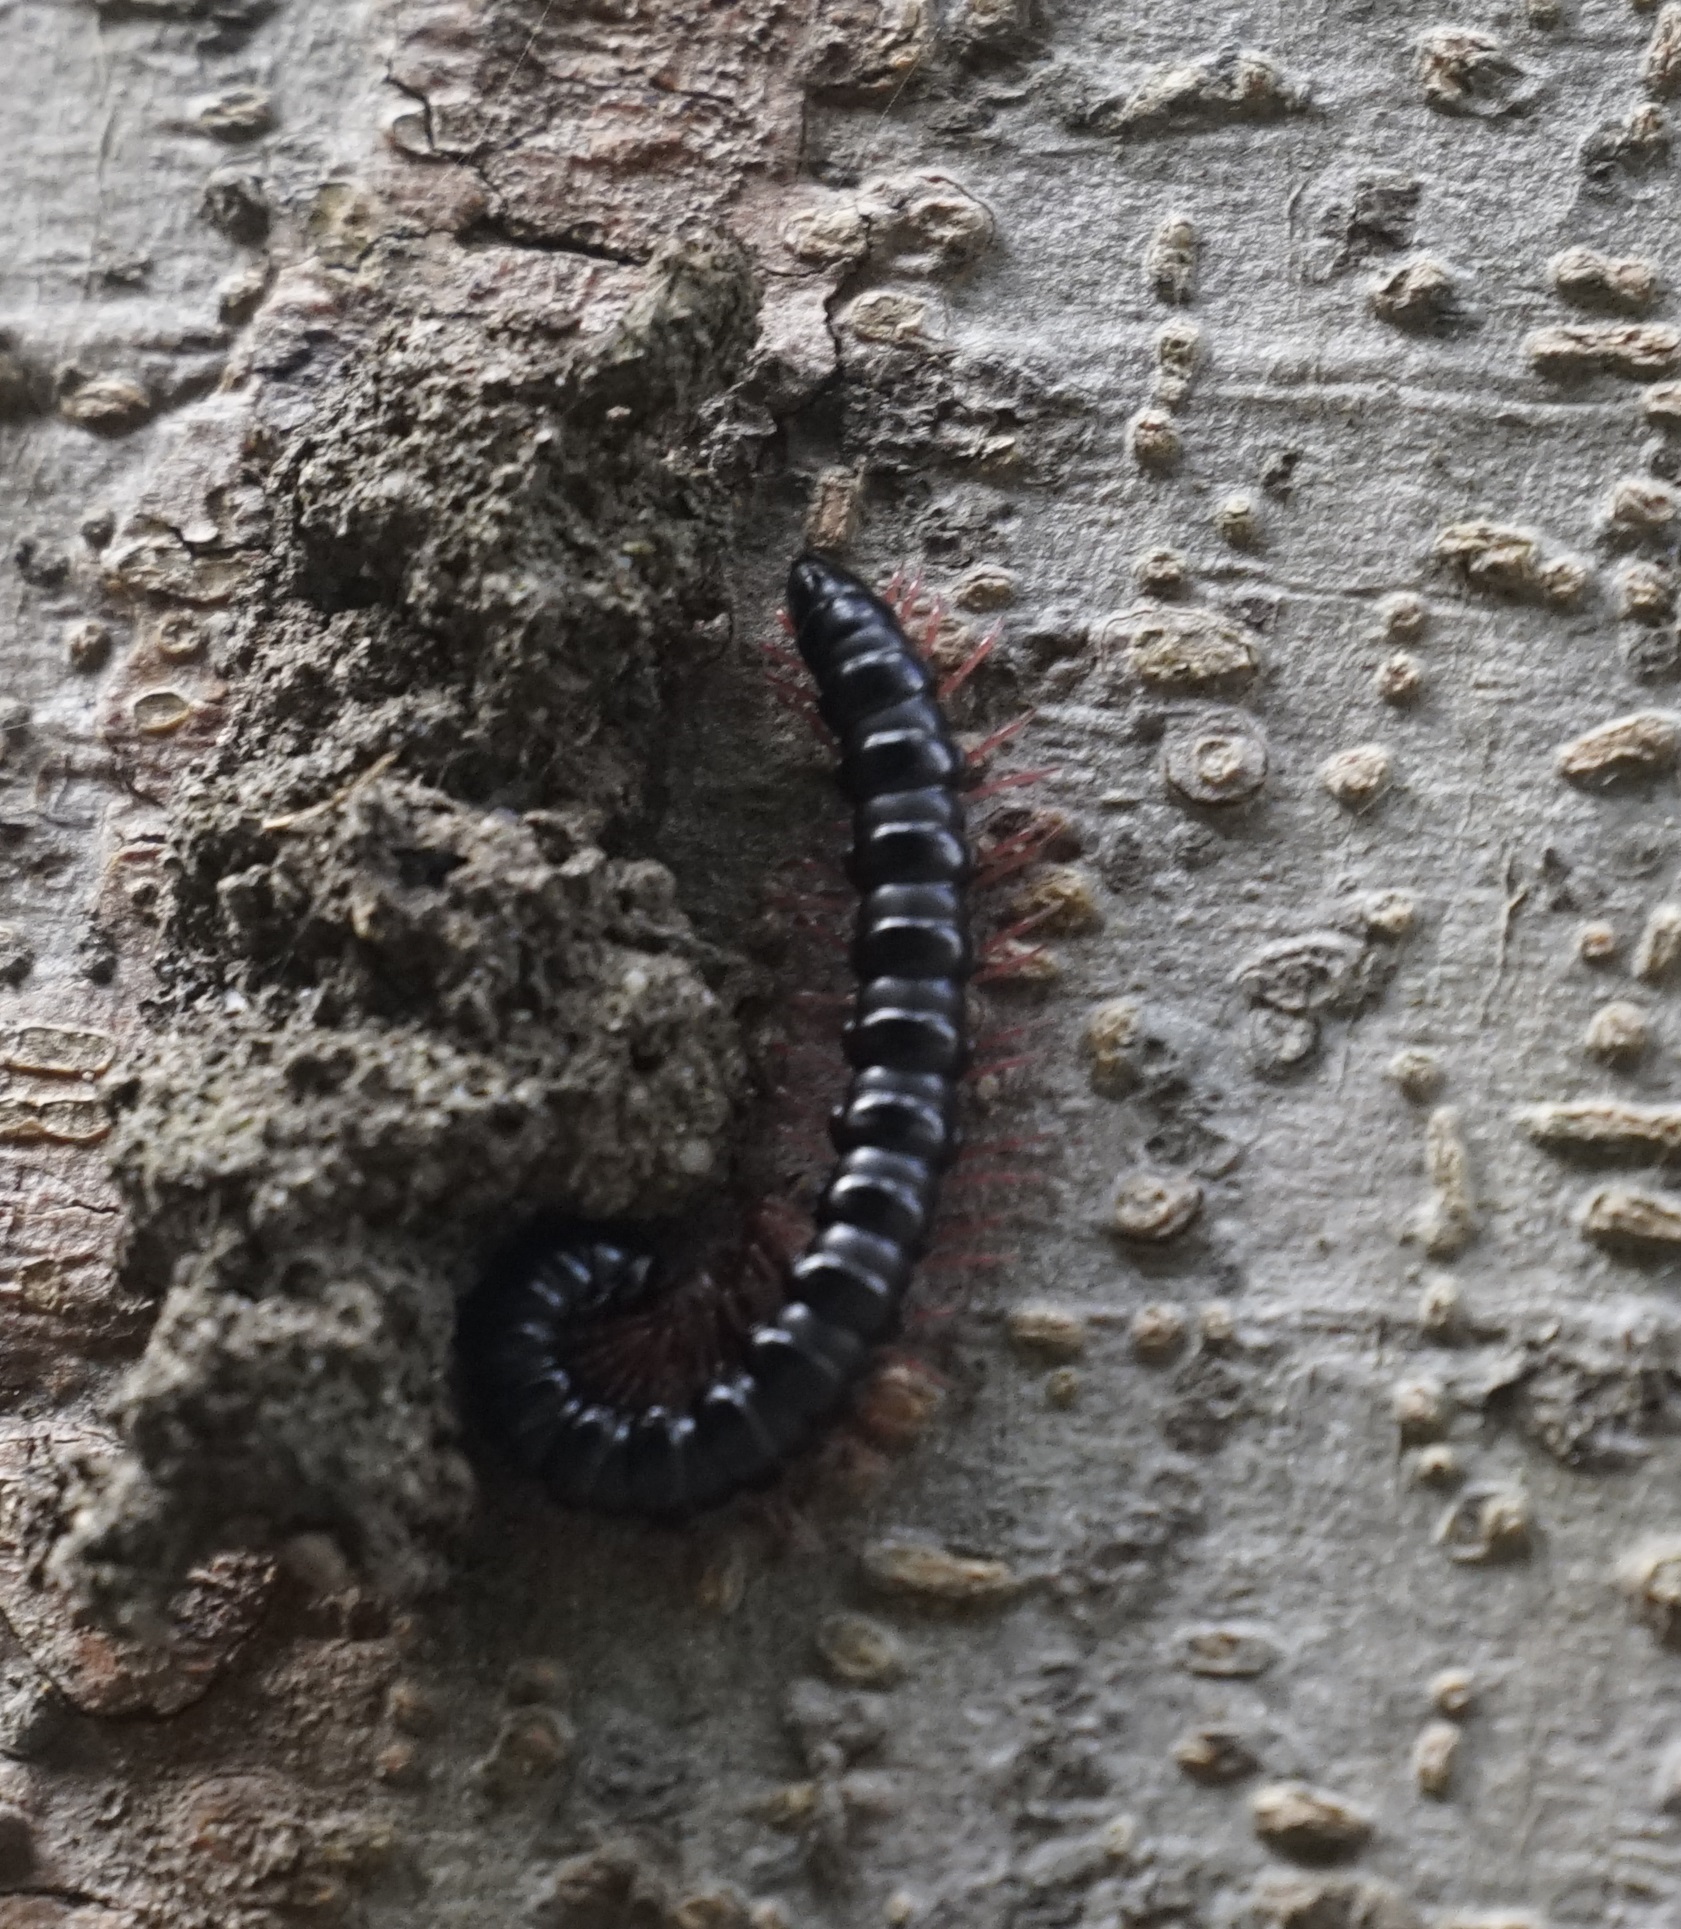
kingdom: Animalia
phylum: Arthropoda
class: Diplopoda
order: Polydesmida
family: Paradoxosomatidae
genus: Heterocladosoma
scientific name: Heterocladosoma
